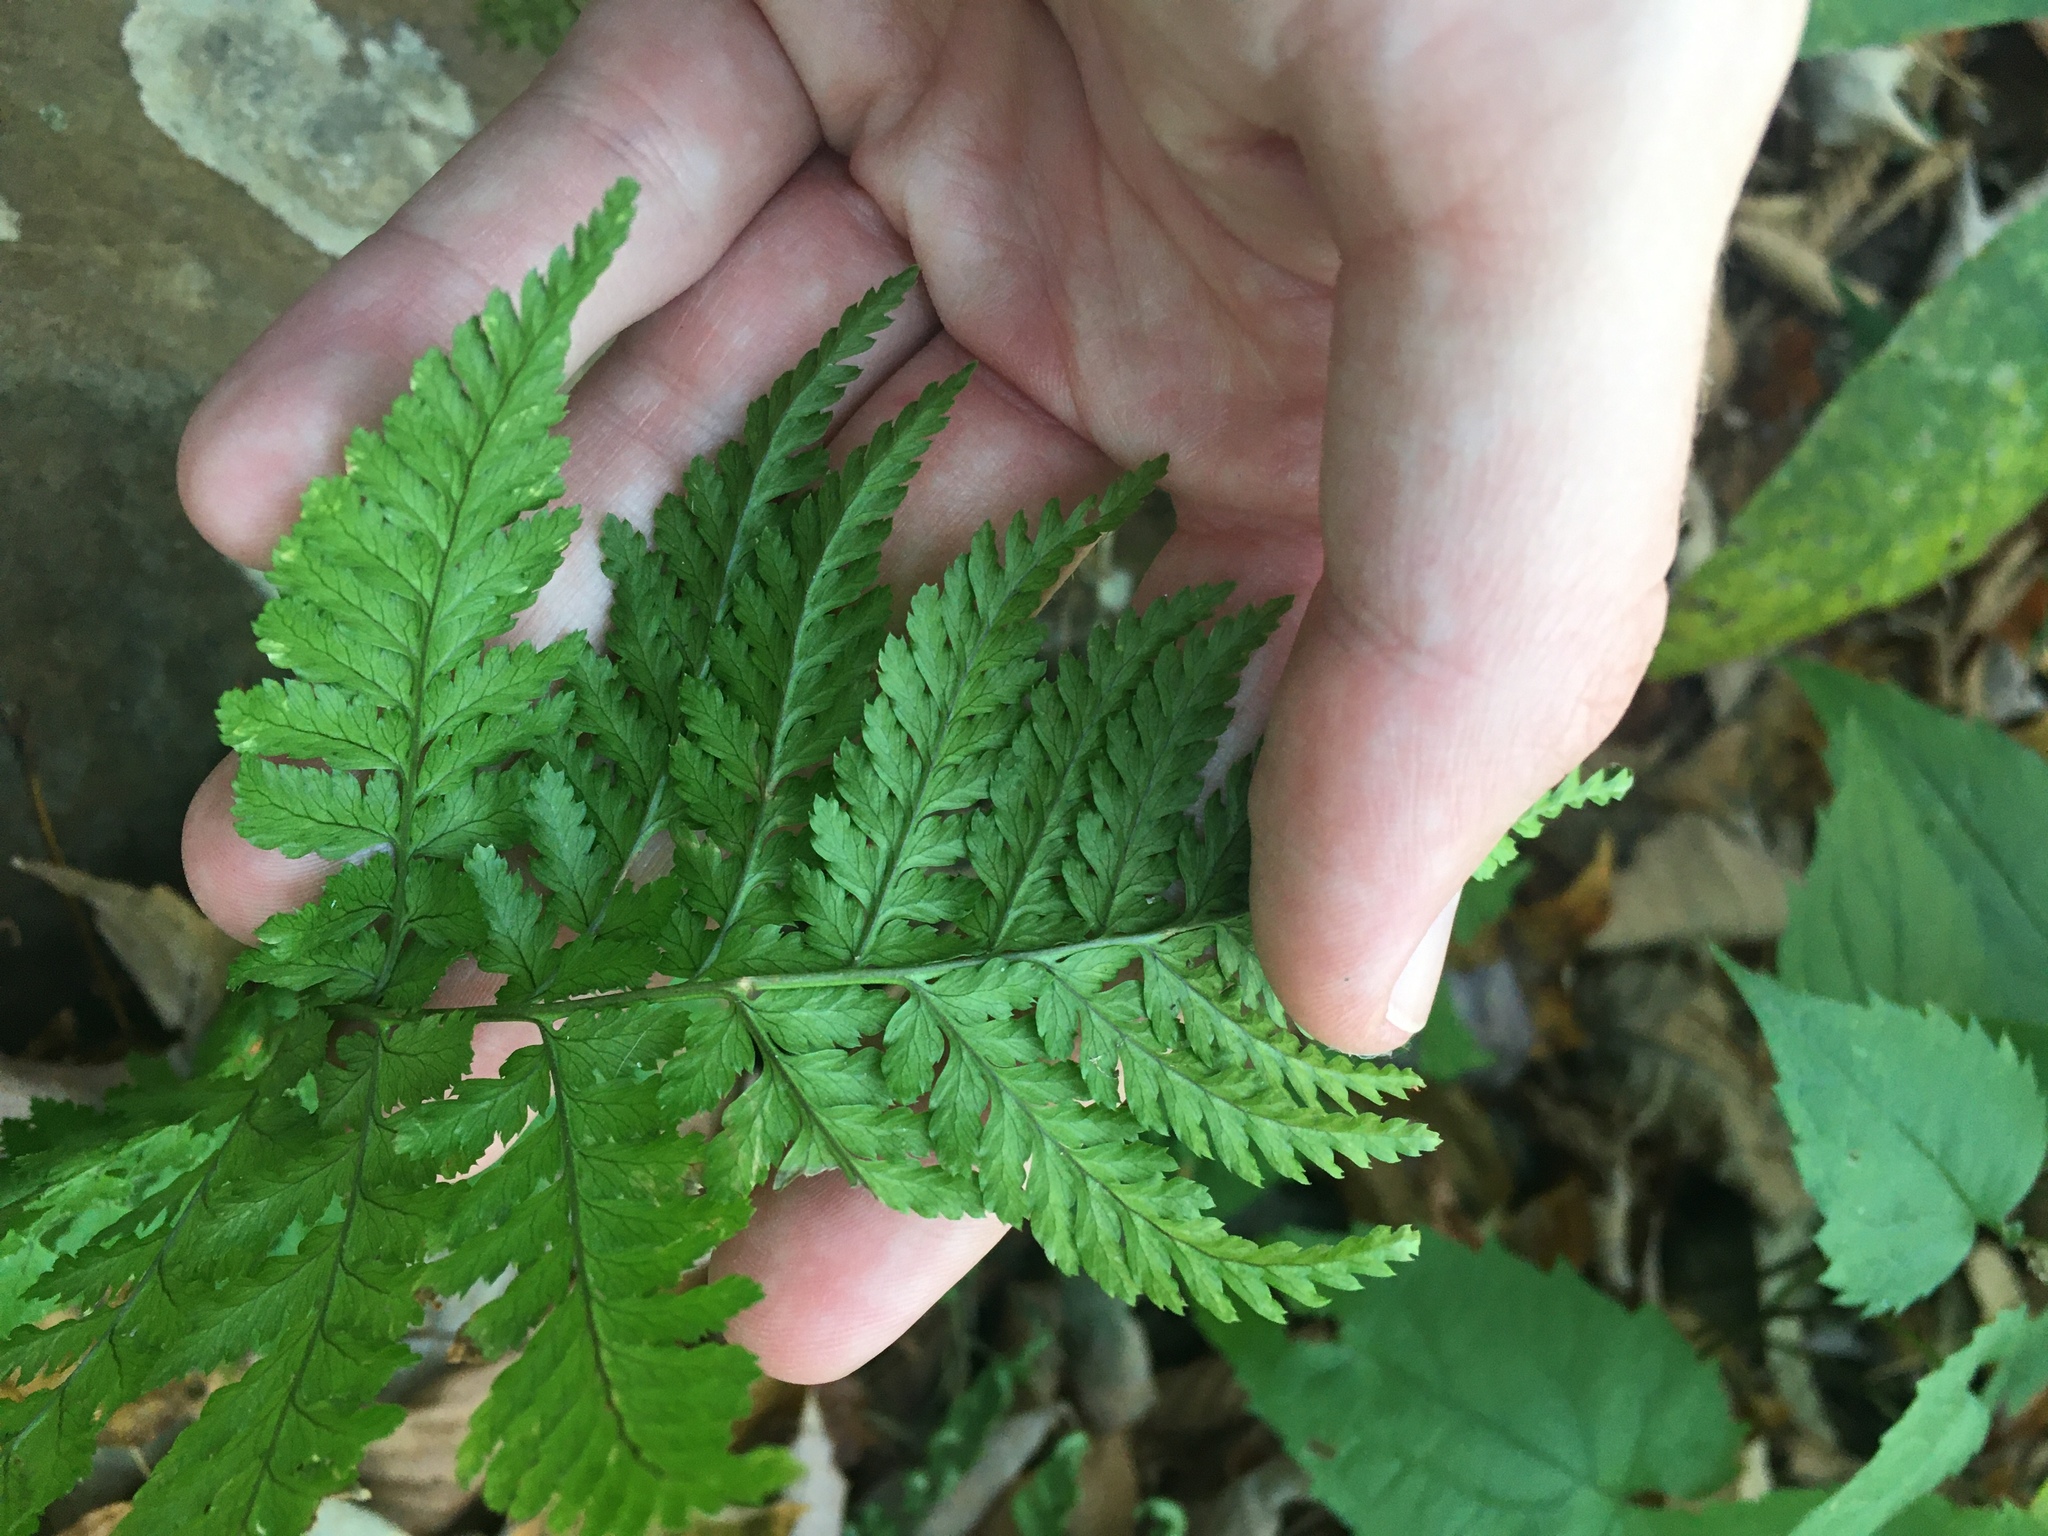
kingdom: Plantae
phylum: Tracheophyta
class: Polypodiopsida
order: Polypodiales
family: Dryopteridaceae
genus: Dryopteris
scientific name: Dryopteris intermedia
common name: Evergreen wood fern
